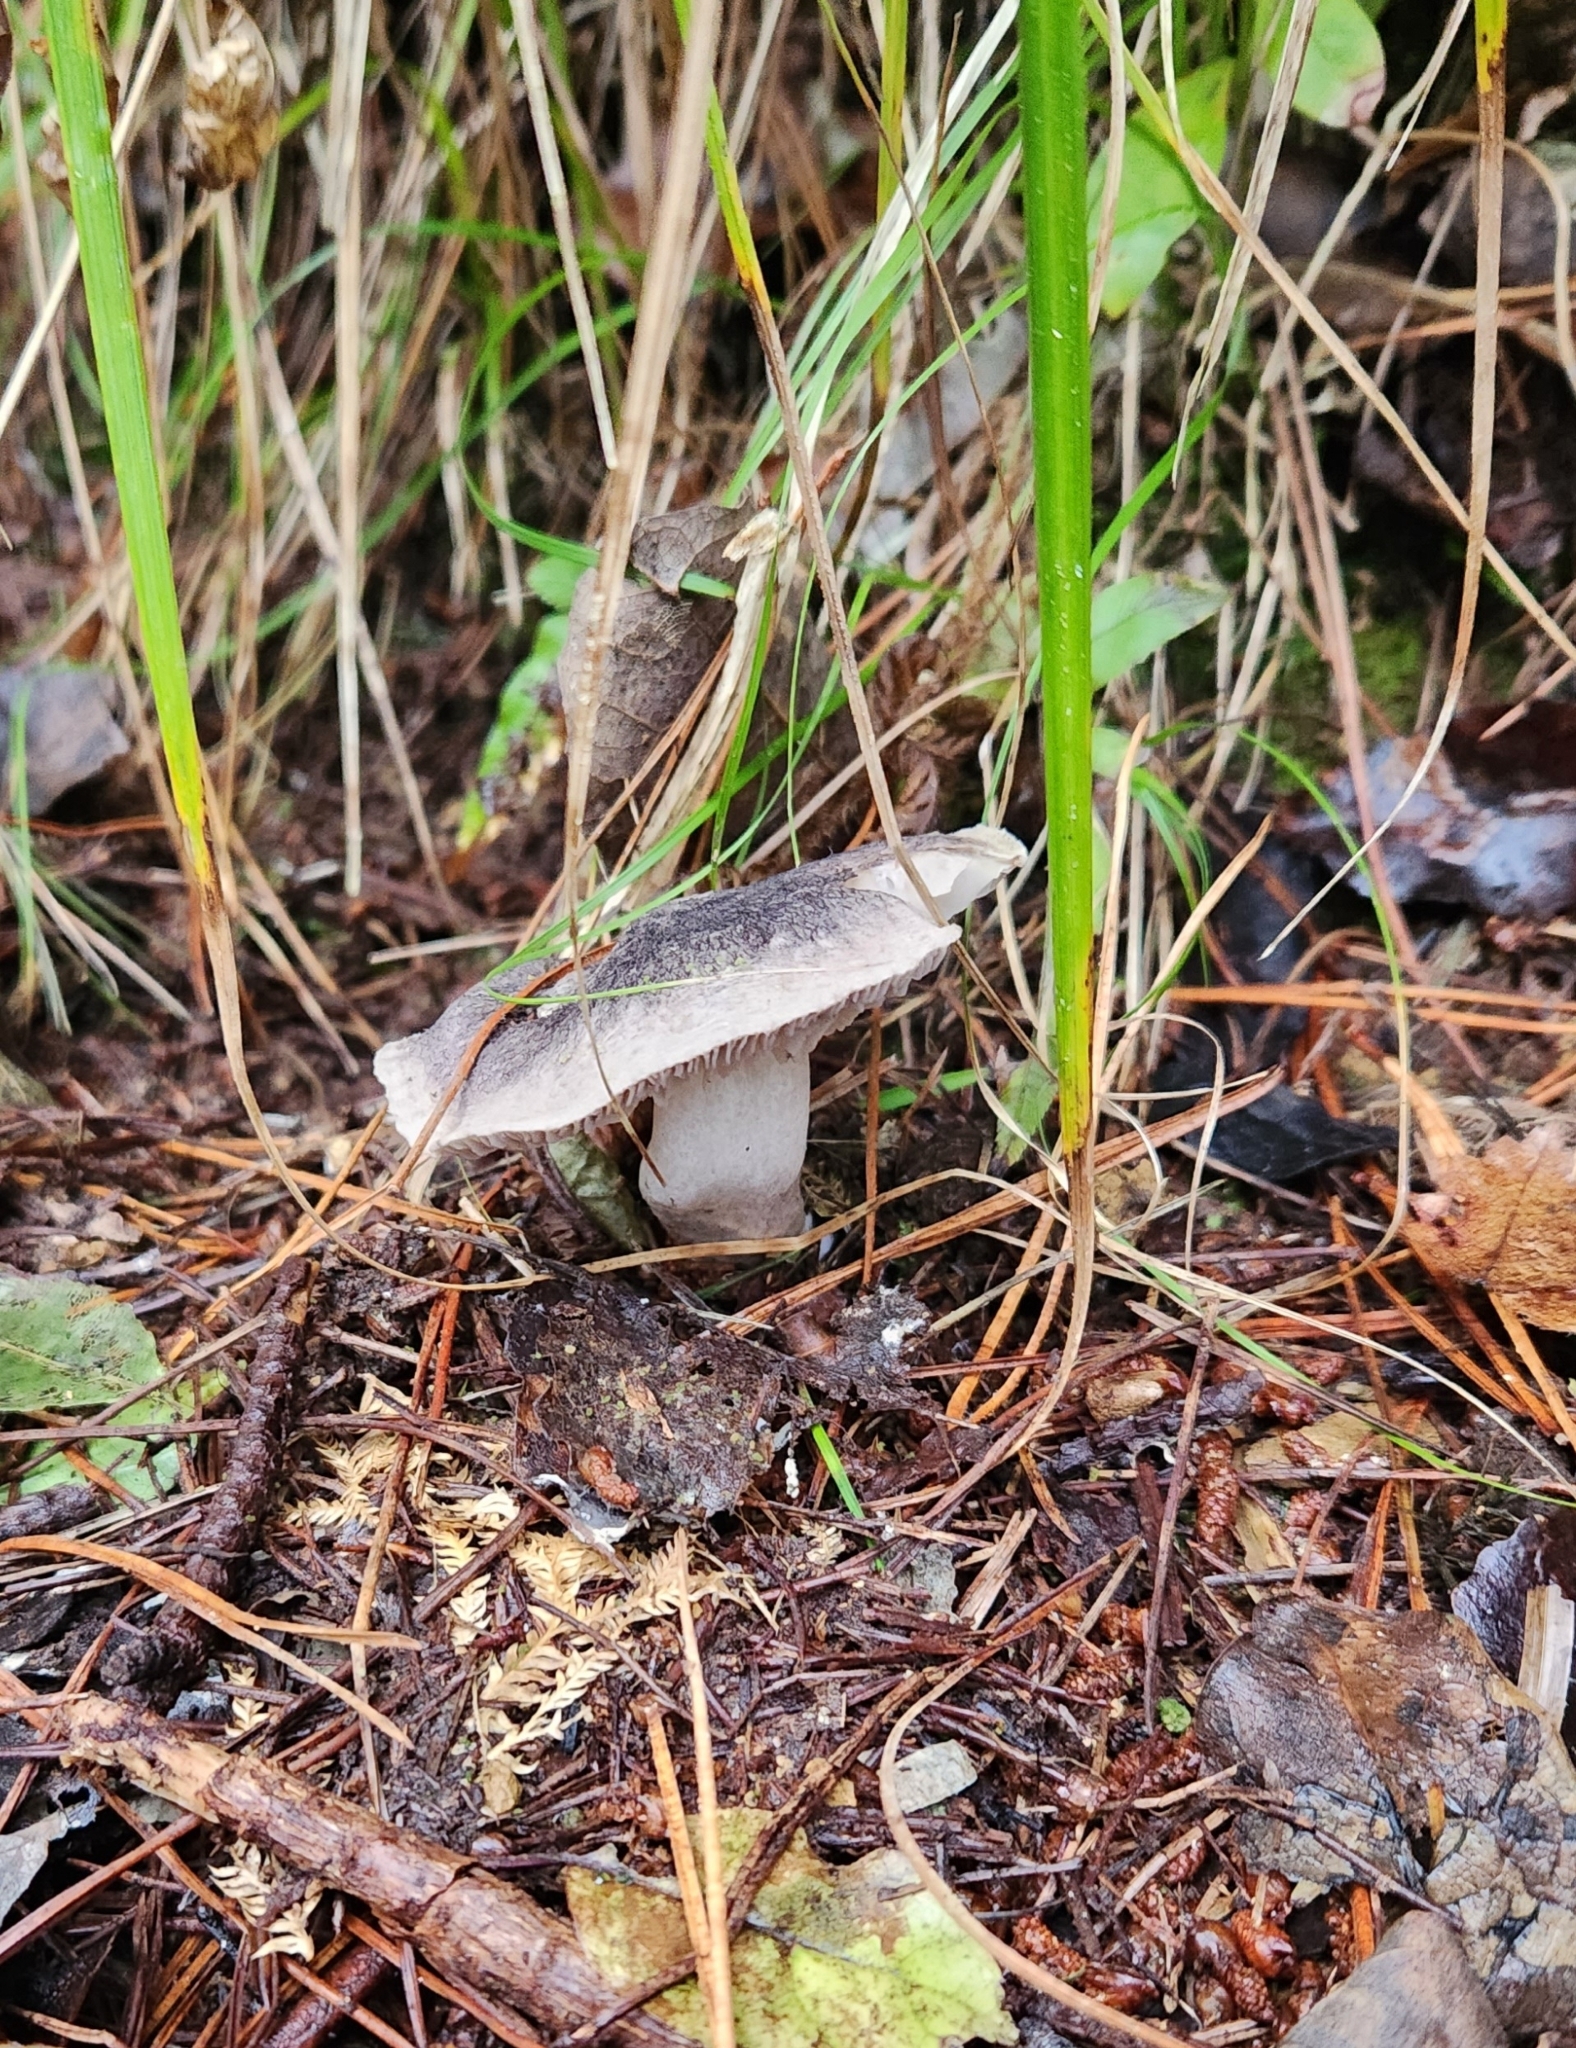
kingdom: Fungi
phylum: Basidiomycota
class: Agaricomycetes
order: Agaricales
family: Tricholomataceae
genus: Tricholoma
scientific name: Tricholoma terreum
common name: Grey knight
